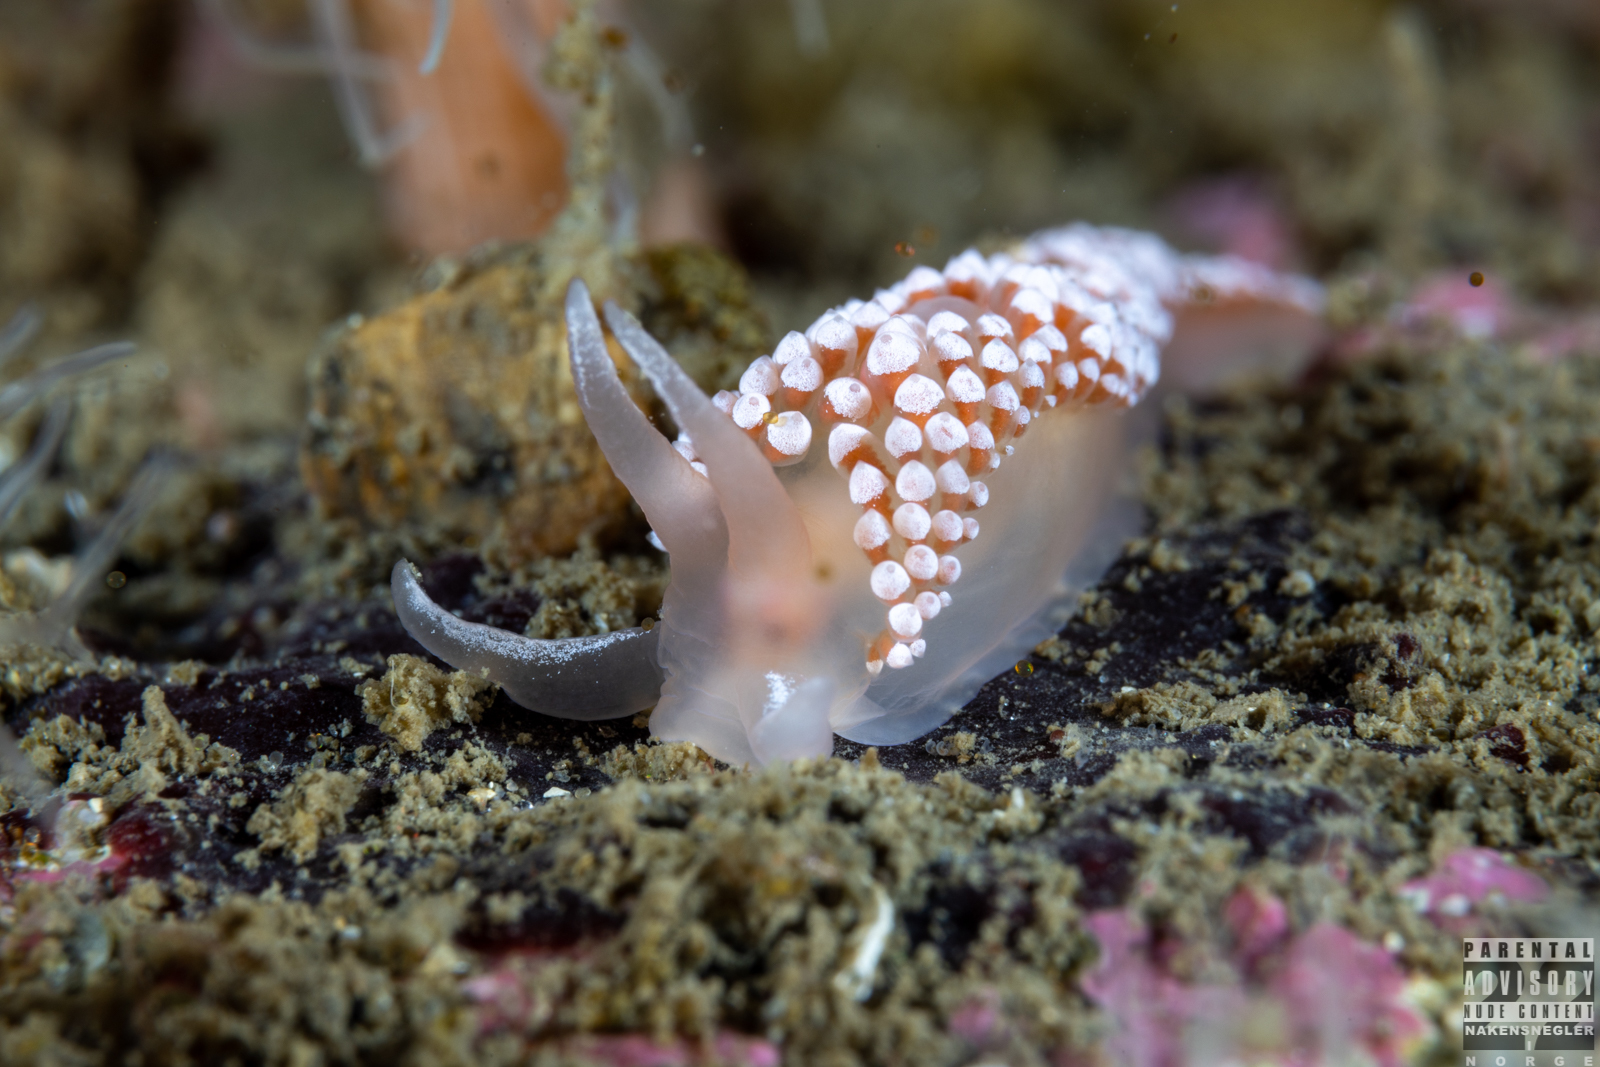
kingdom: Animalia
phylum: Mollusca
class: Gastropoda
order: Nudibranchia
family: Coryphellidae
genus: Coryphella
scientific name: Coryphella verrucosa
